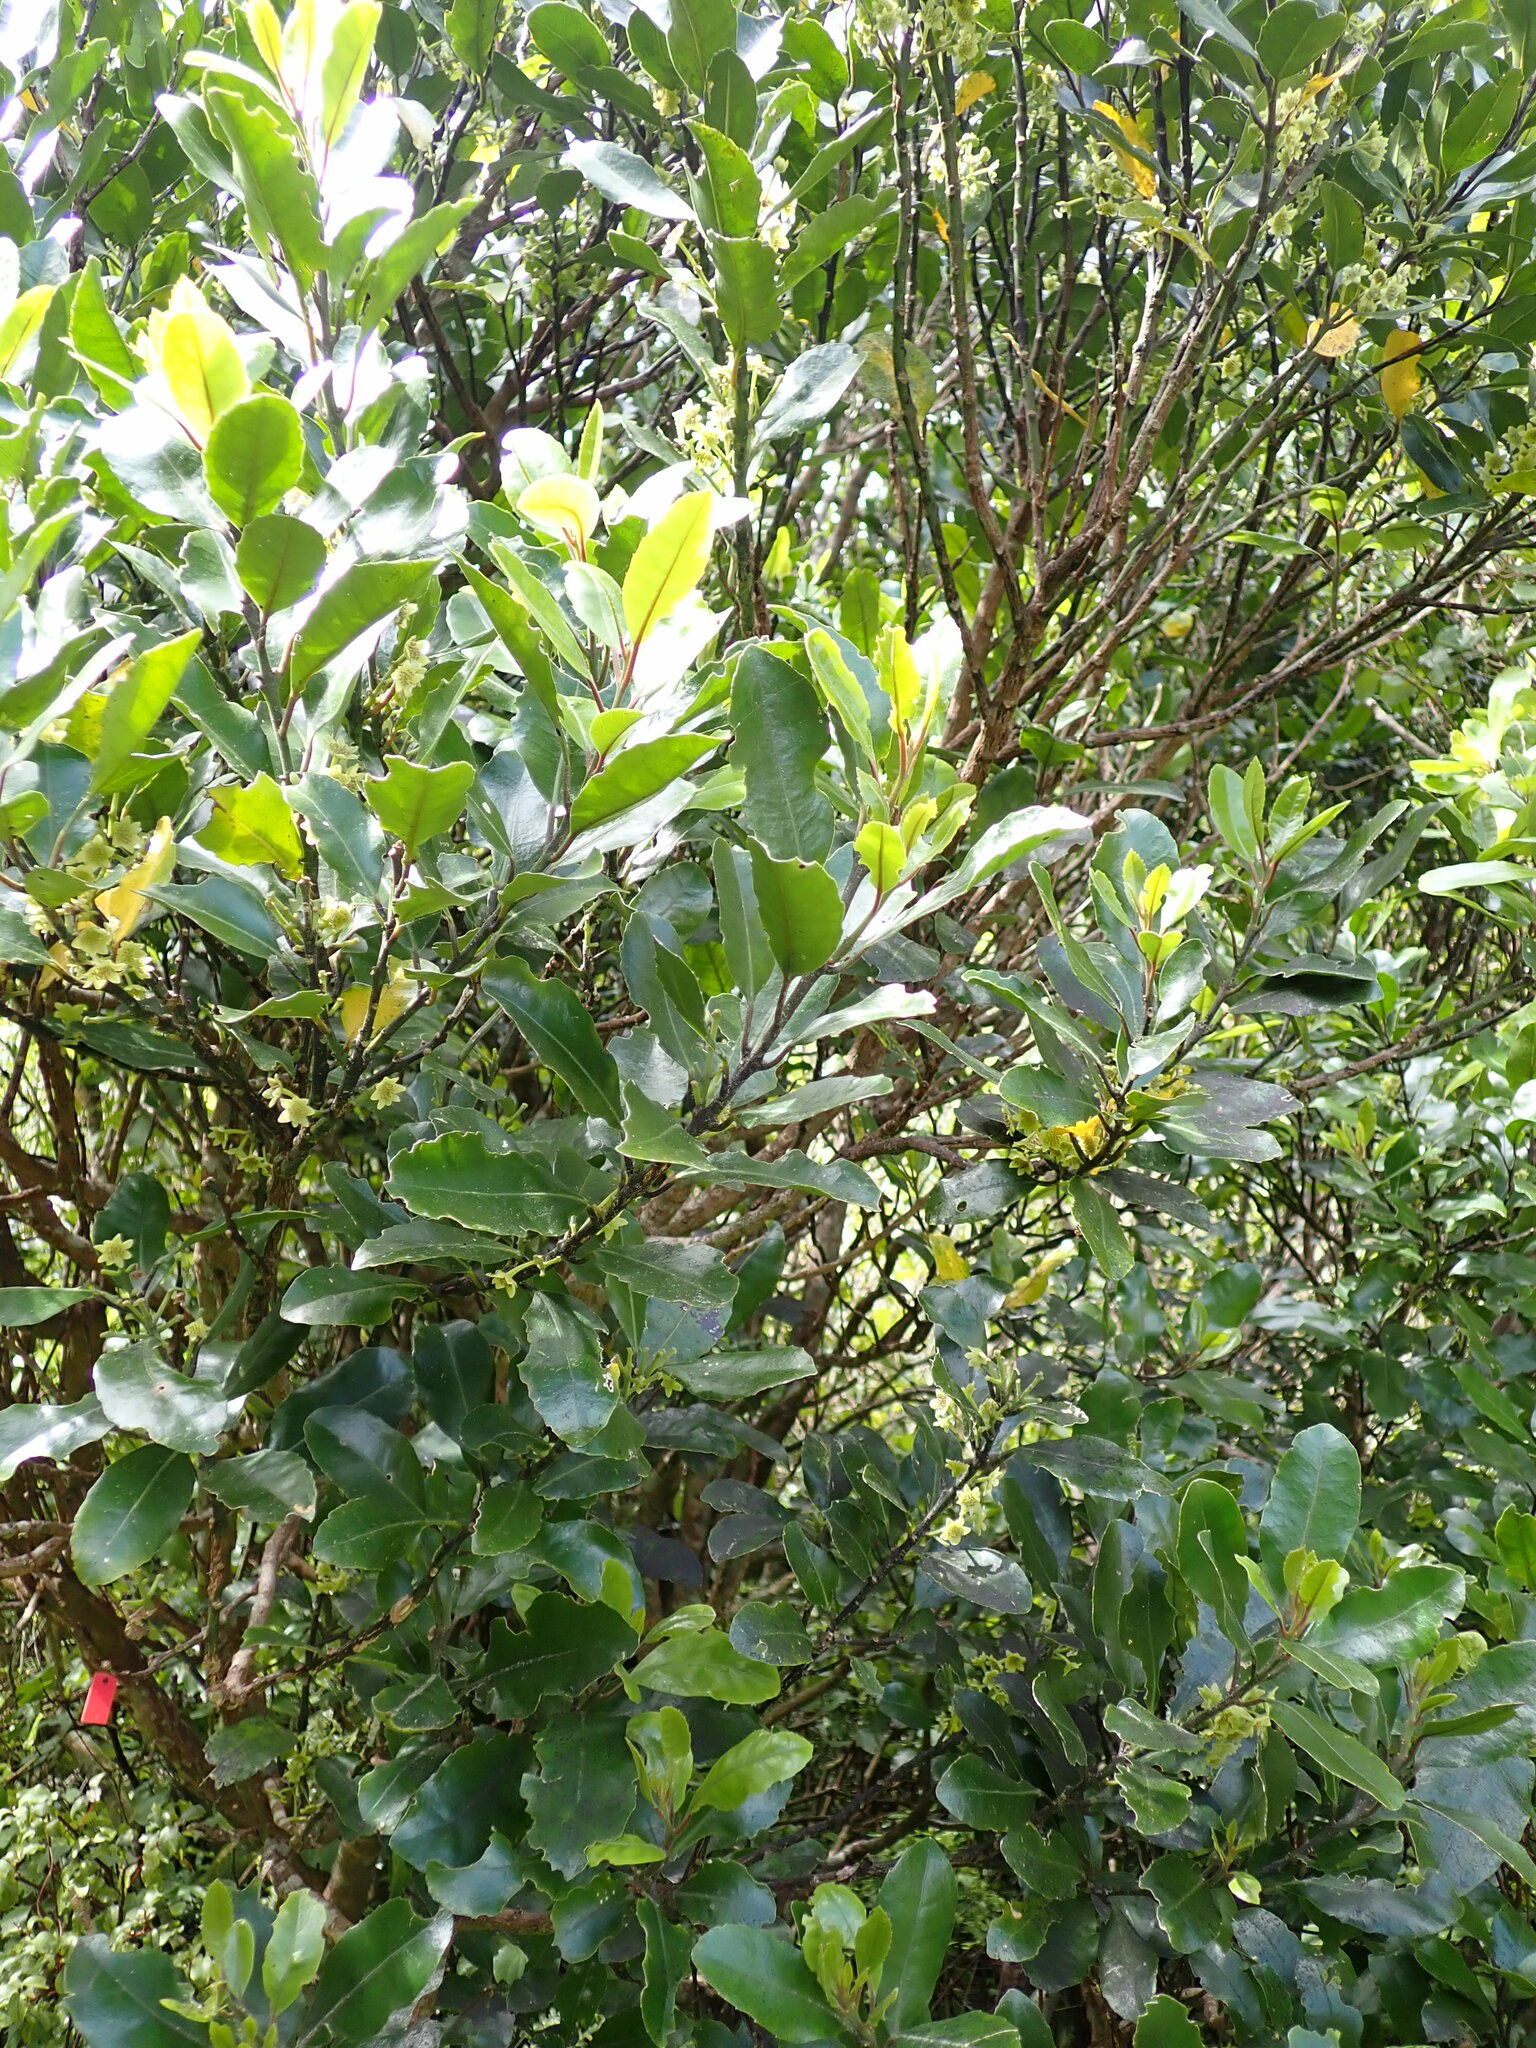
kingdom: Plantae
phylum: Tracheophyta
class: Magnoliopsida
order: Laurales
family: Monimiaceae
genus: Hedycarya
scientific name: Hedycarya arborea
